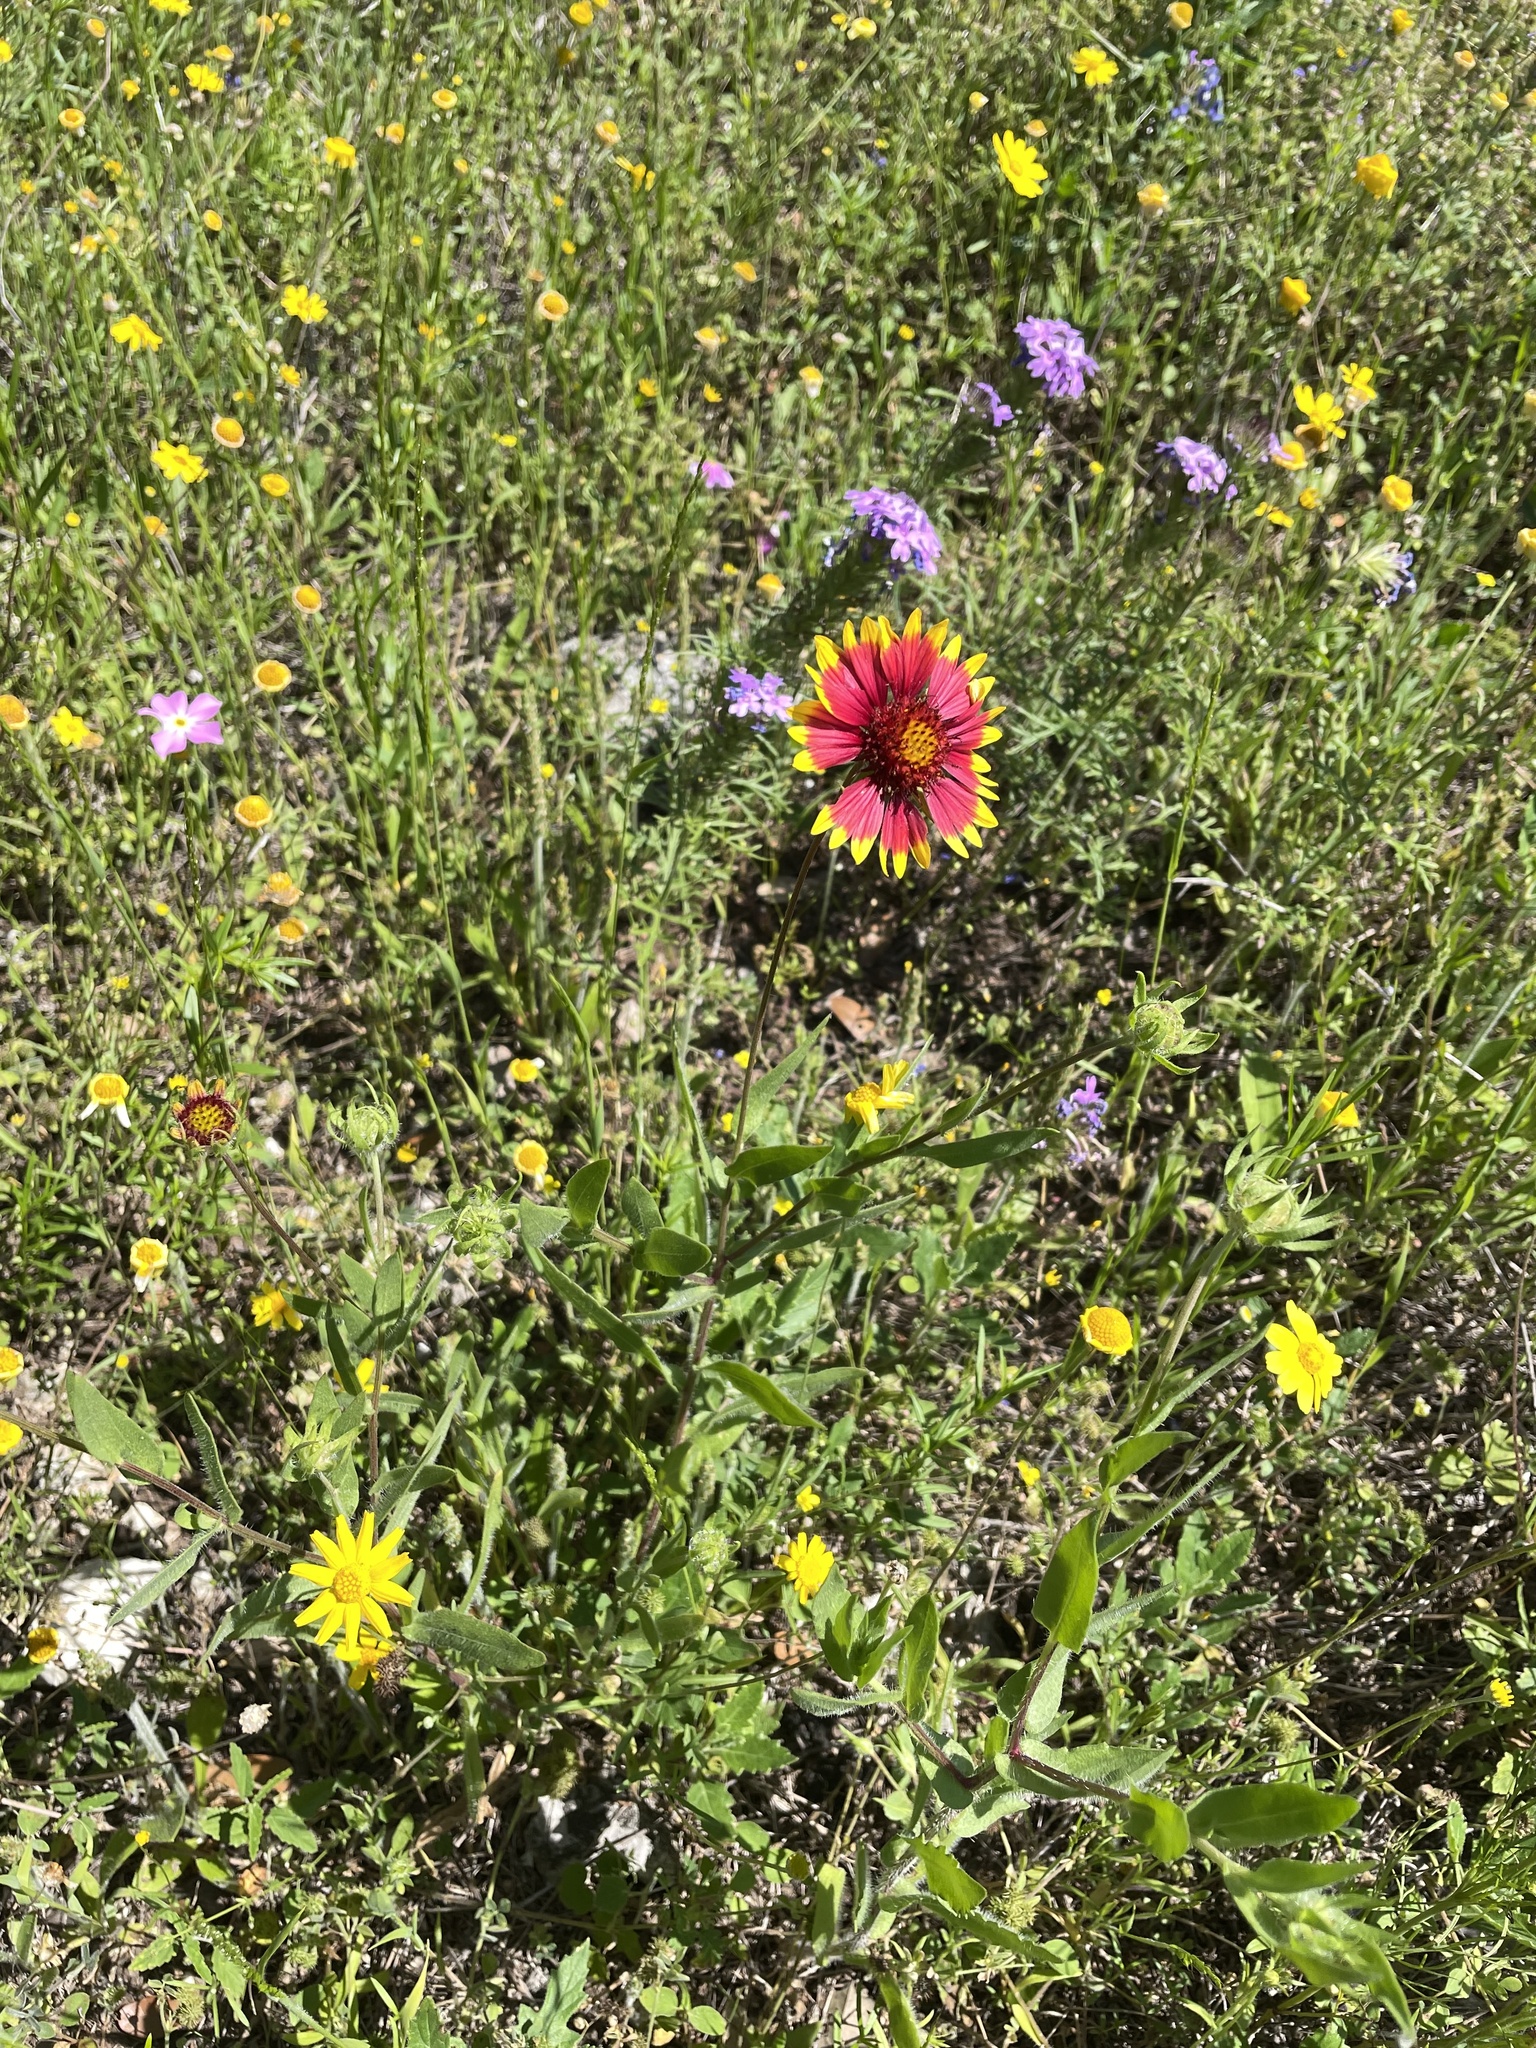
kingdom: Plantae
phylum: Tracheophyta
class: Magnoliopsida
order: Asterales
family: Asteraceae
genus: Gaillardia
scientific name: Gaillardia pulchella
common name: Firewheel
